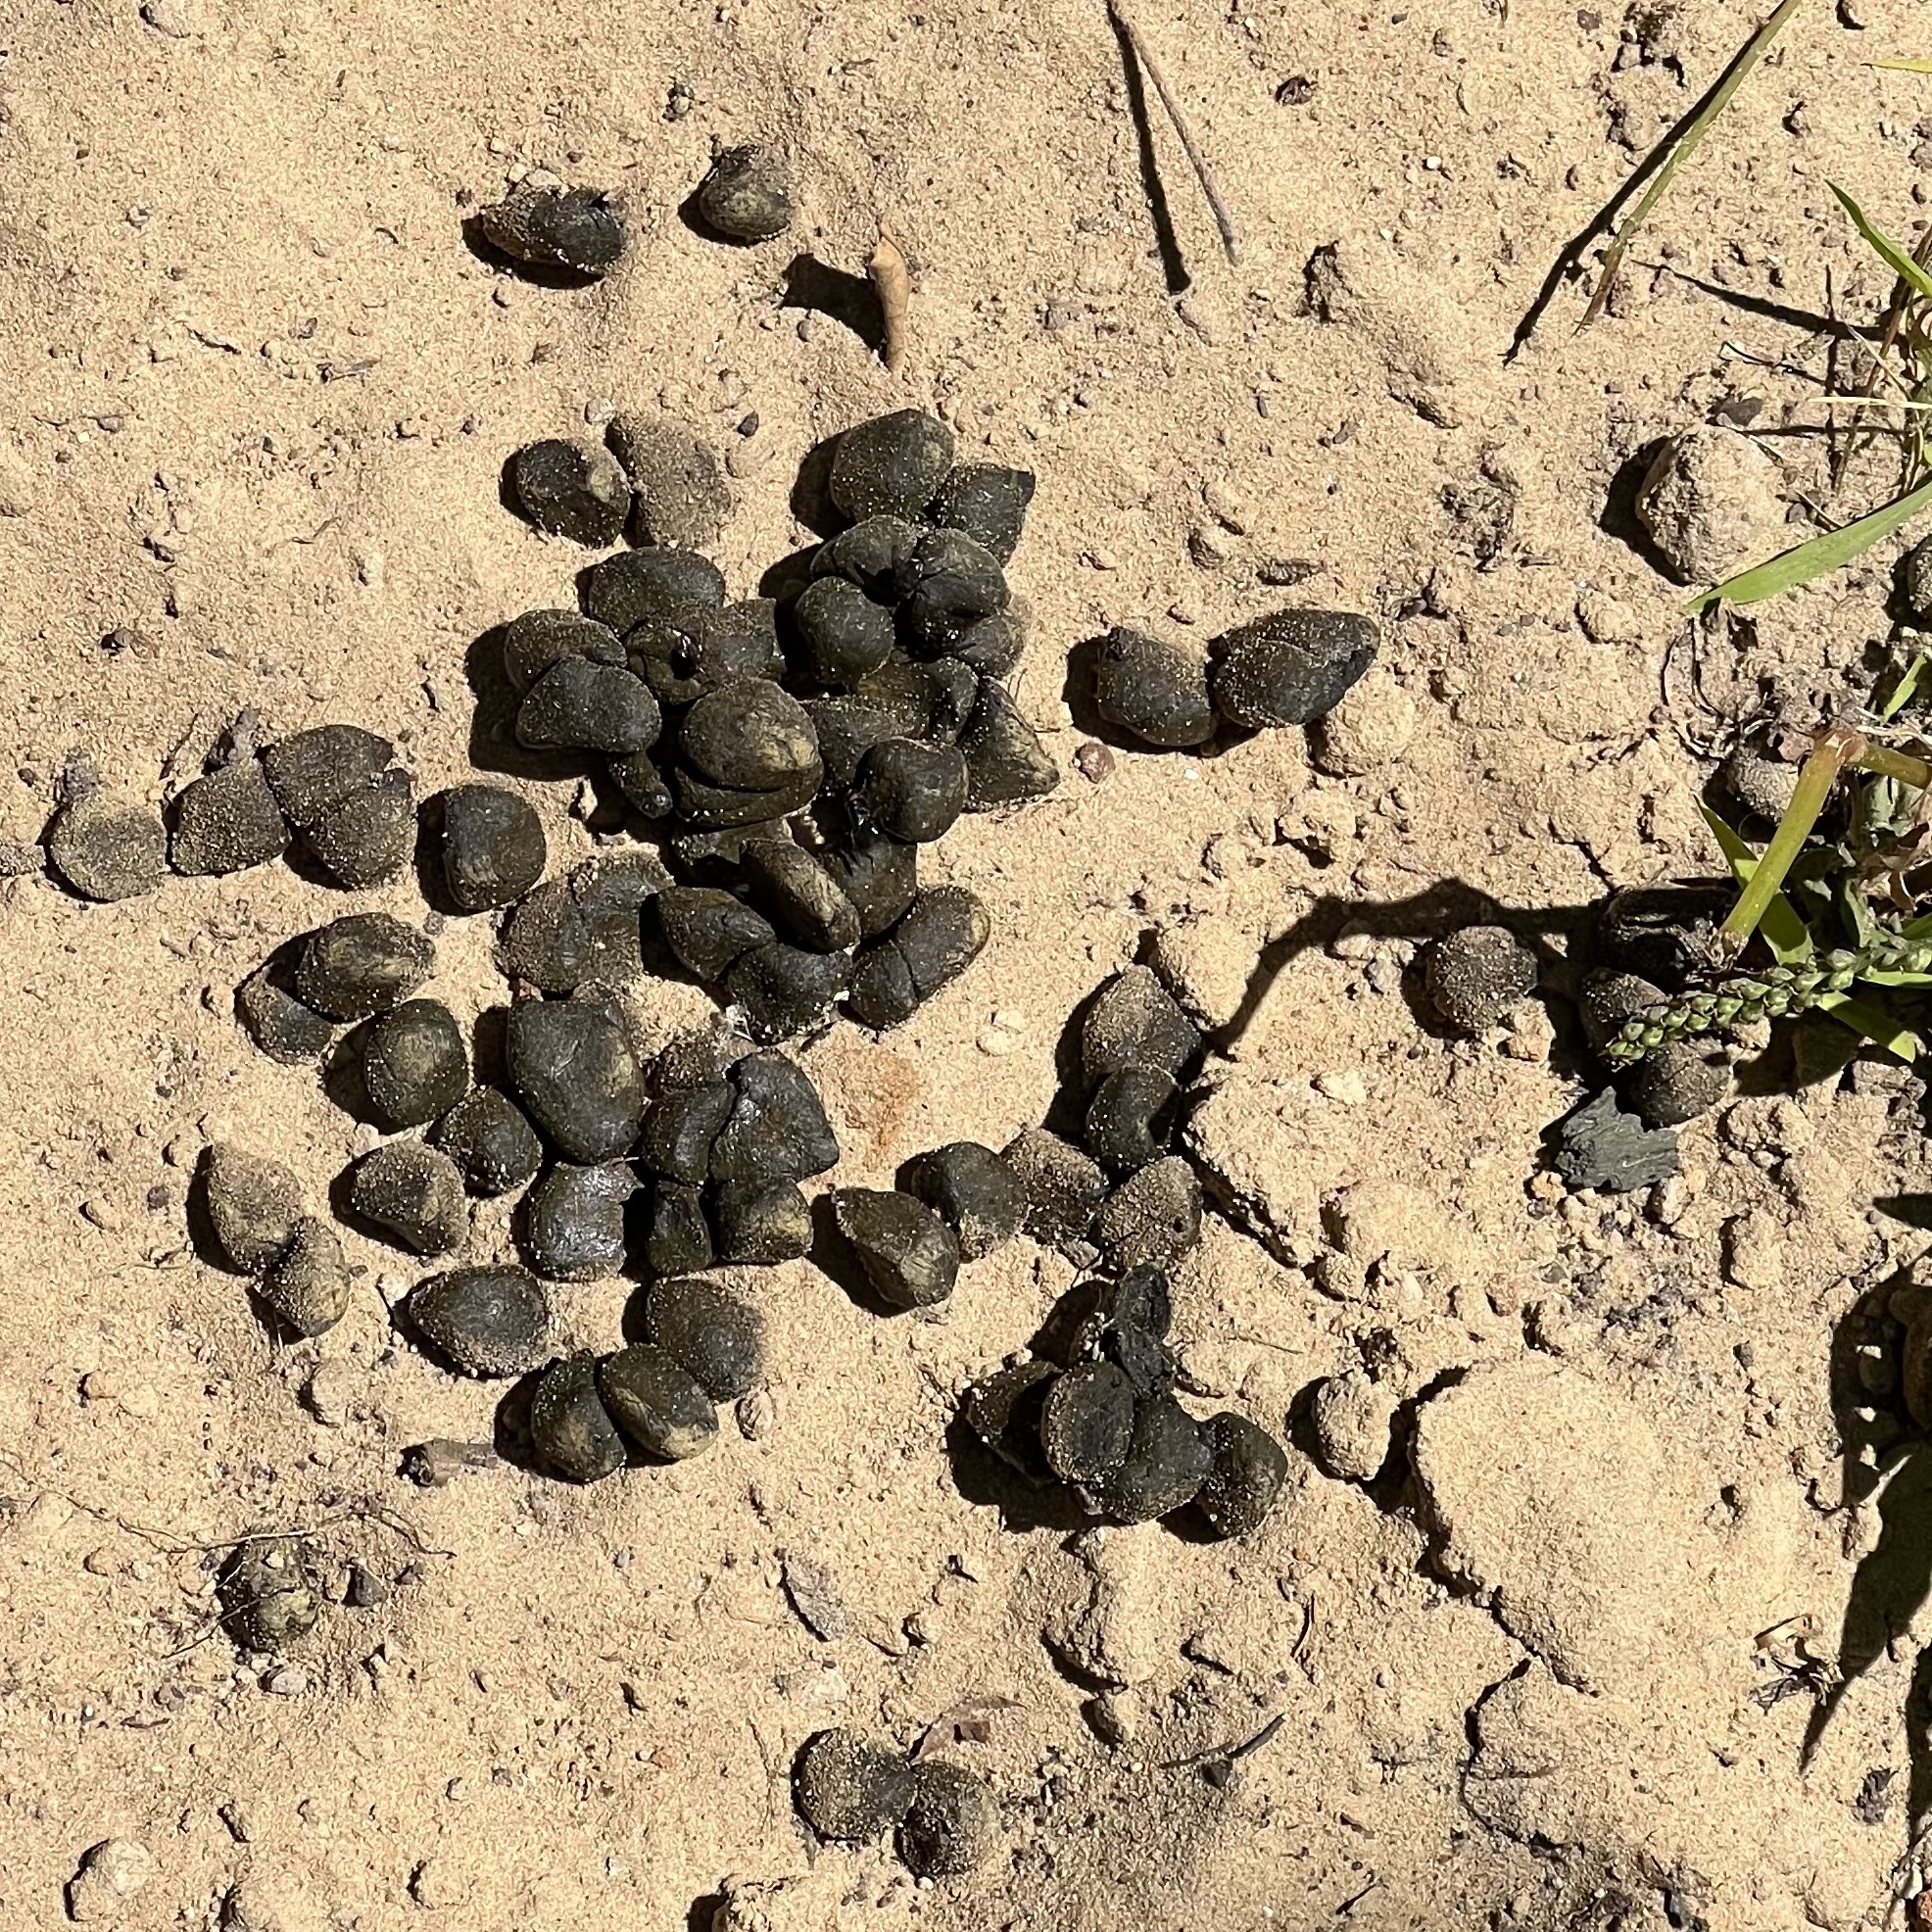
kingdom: Animalia
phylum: Chordata
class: Mammalia
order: Artiodactyla
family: Cervidae
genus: Odocoileus
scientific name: Odocoileus virginianus
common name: White-tailed deer
